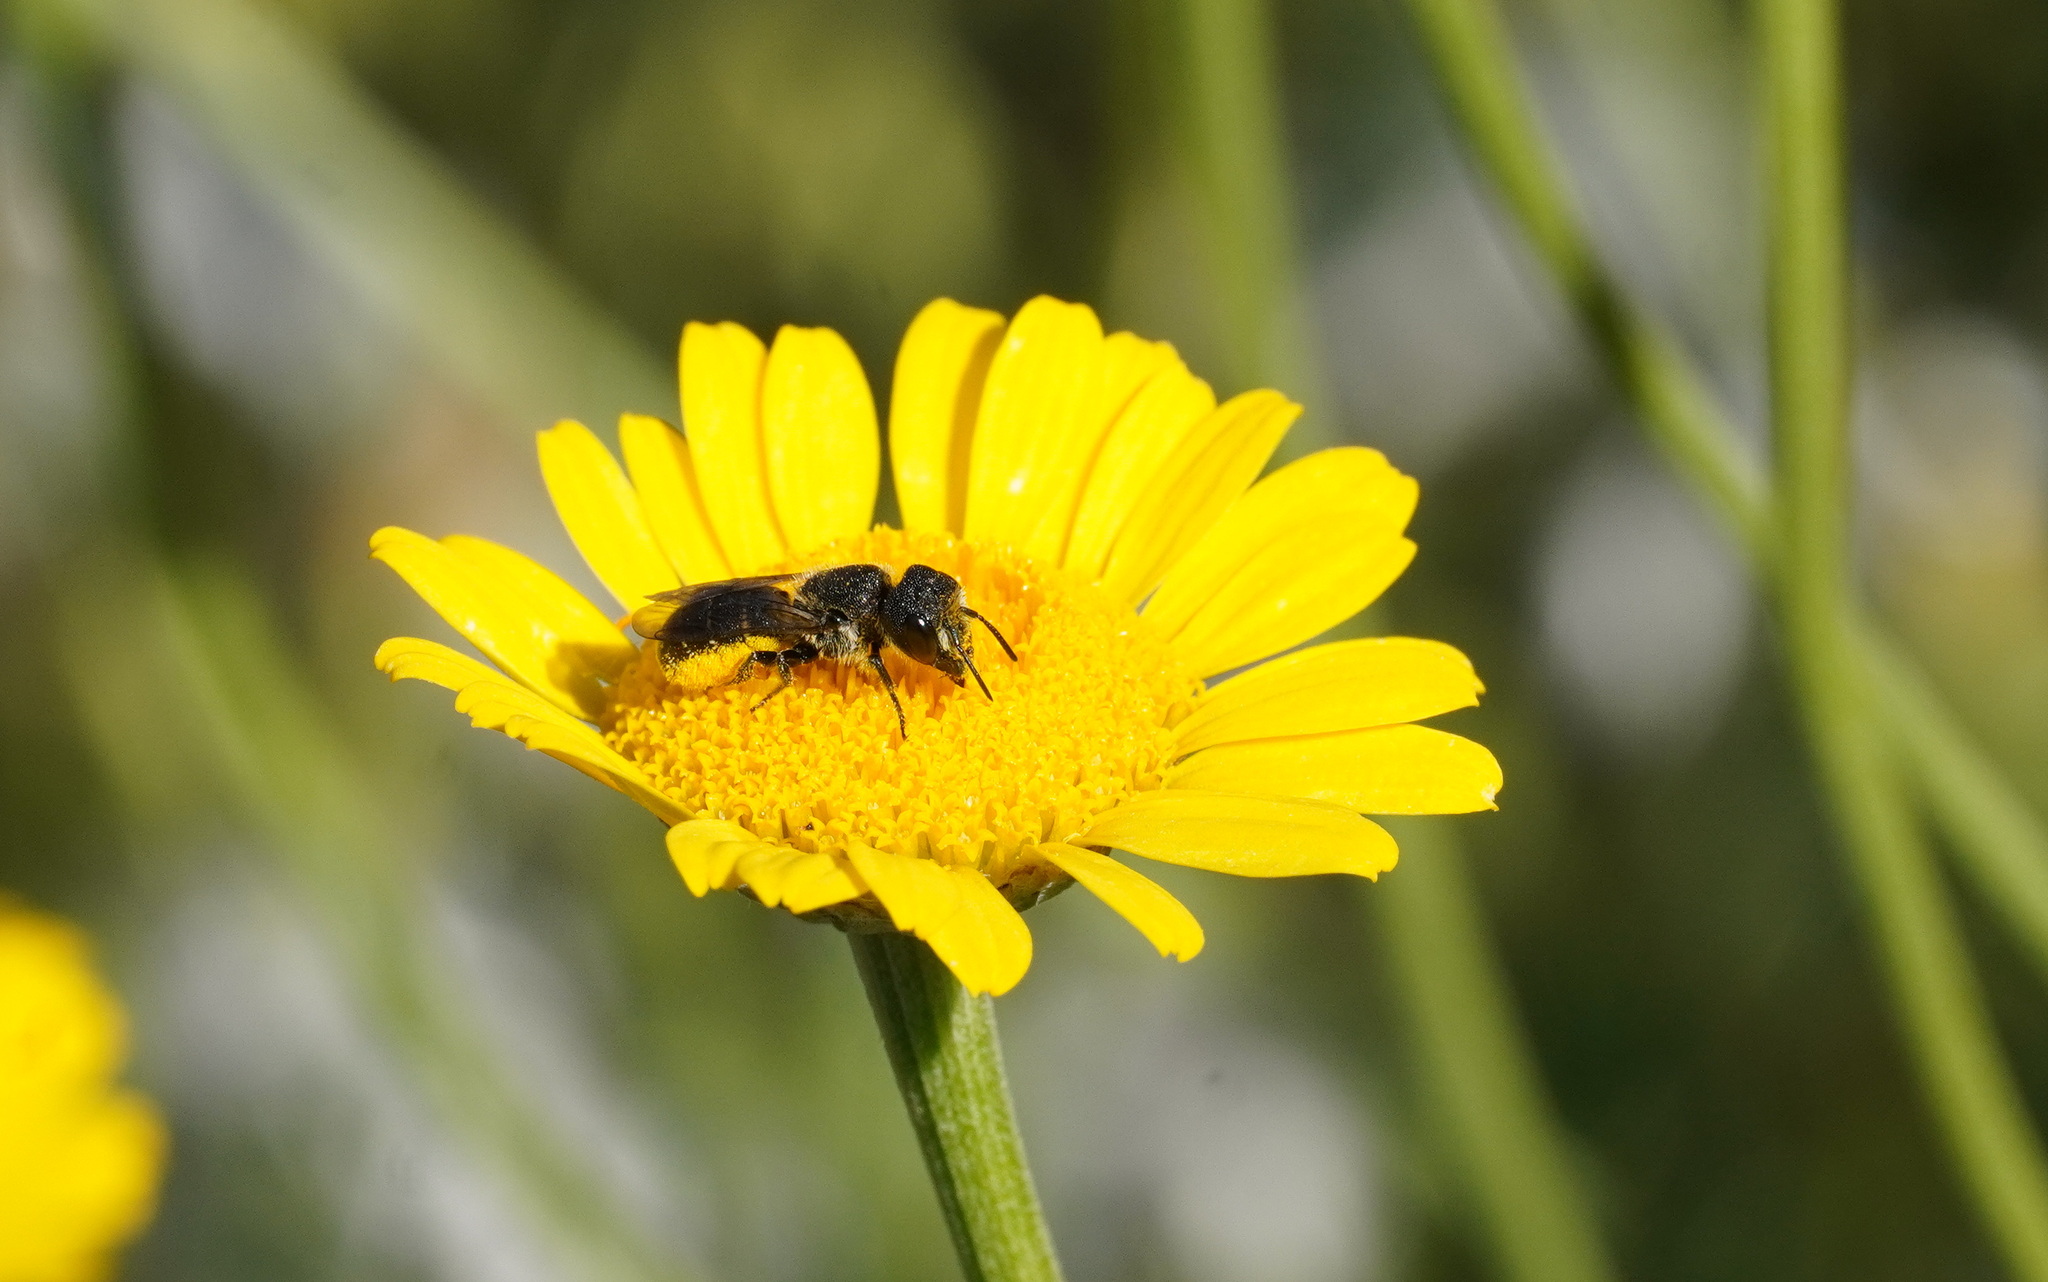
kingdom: Animalia
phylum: Arthropoda
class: Insecta
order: Hymenoptera
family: Megachilidae
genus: Heriades
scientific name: Heriades truncorum
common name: Ridge-saddled carpenter bee
